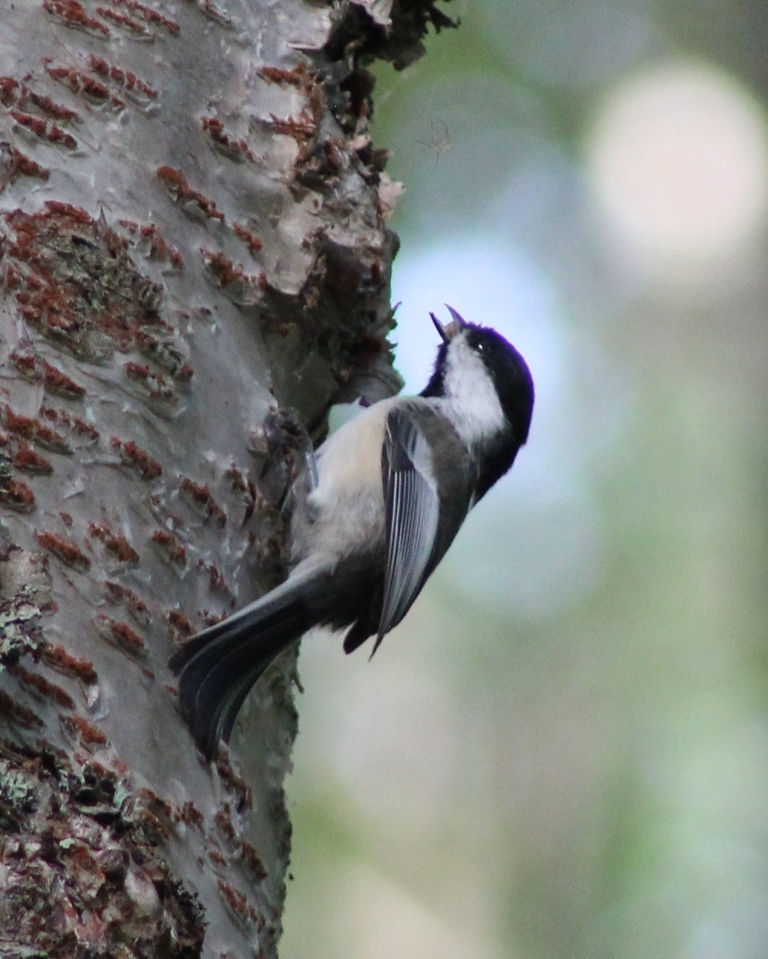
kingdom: Animalia
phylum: Chordata
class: Aves
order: Passeriformes
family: Paridae
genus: Poecile
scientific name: Poecile atricapillus
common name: Black-capped chickadee
